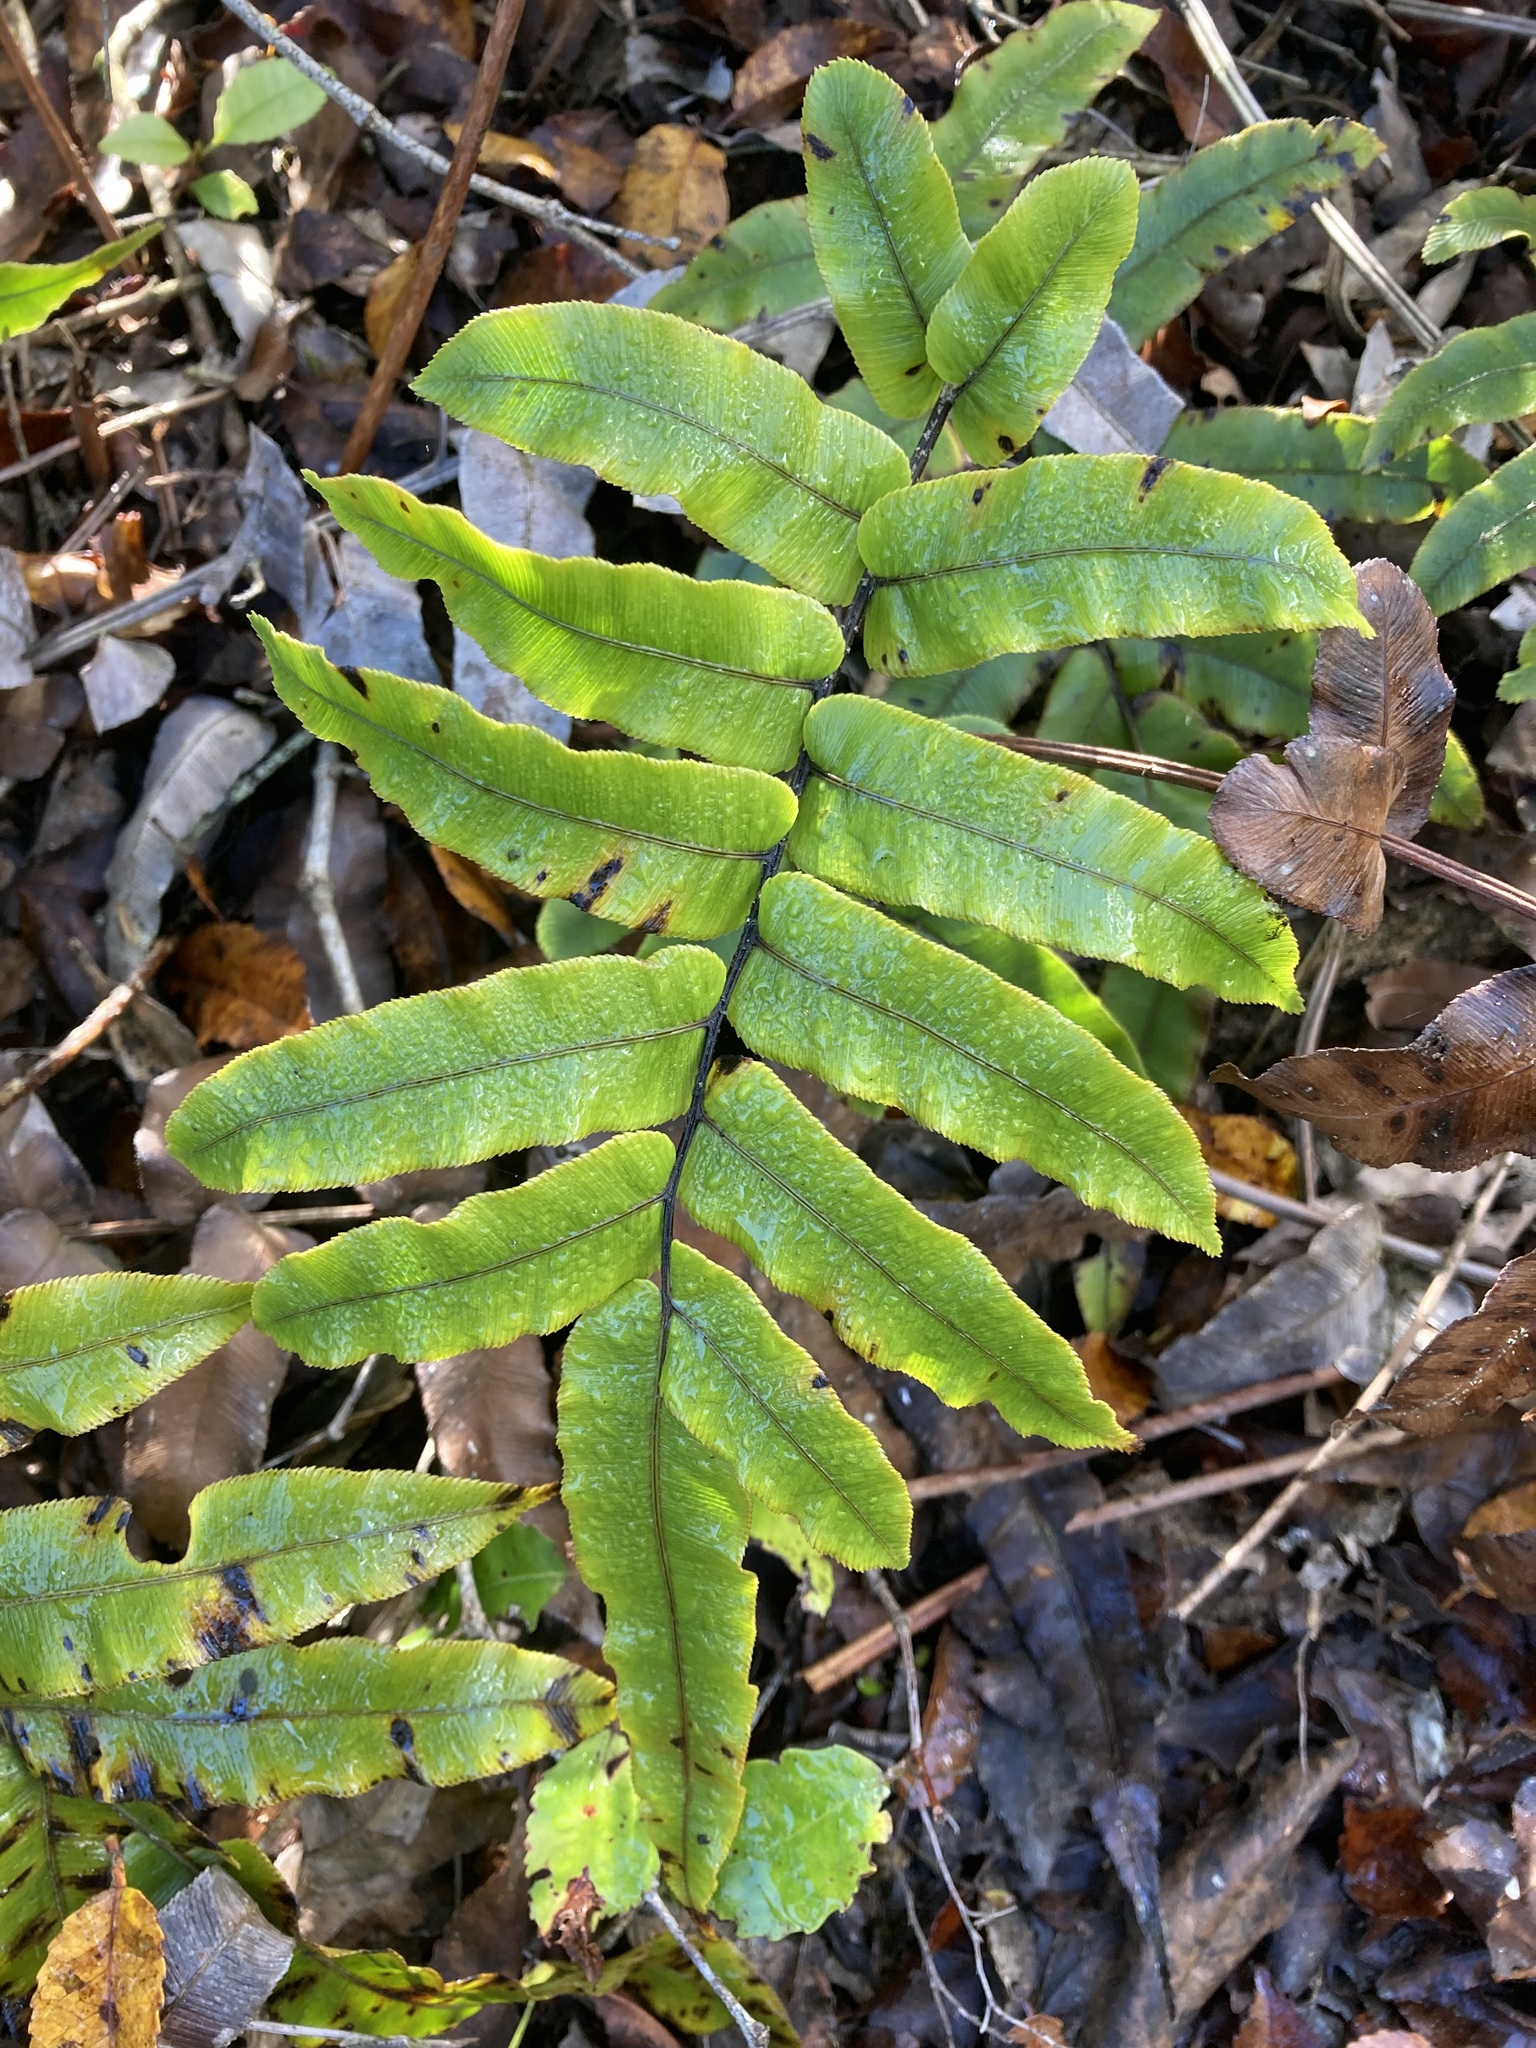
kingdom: Plantae
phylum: Tracheophyta
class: Polypodiopsida
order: Polypodiales
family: Blechnaceae
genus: Parablechnum
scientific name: Parablechnum procerum
